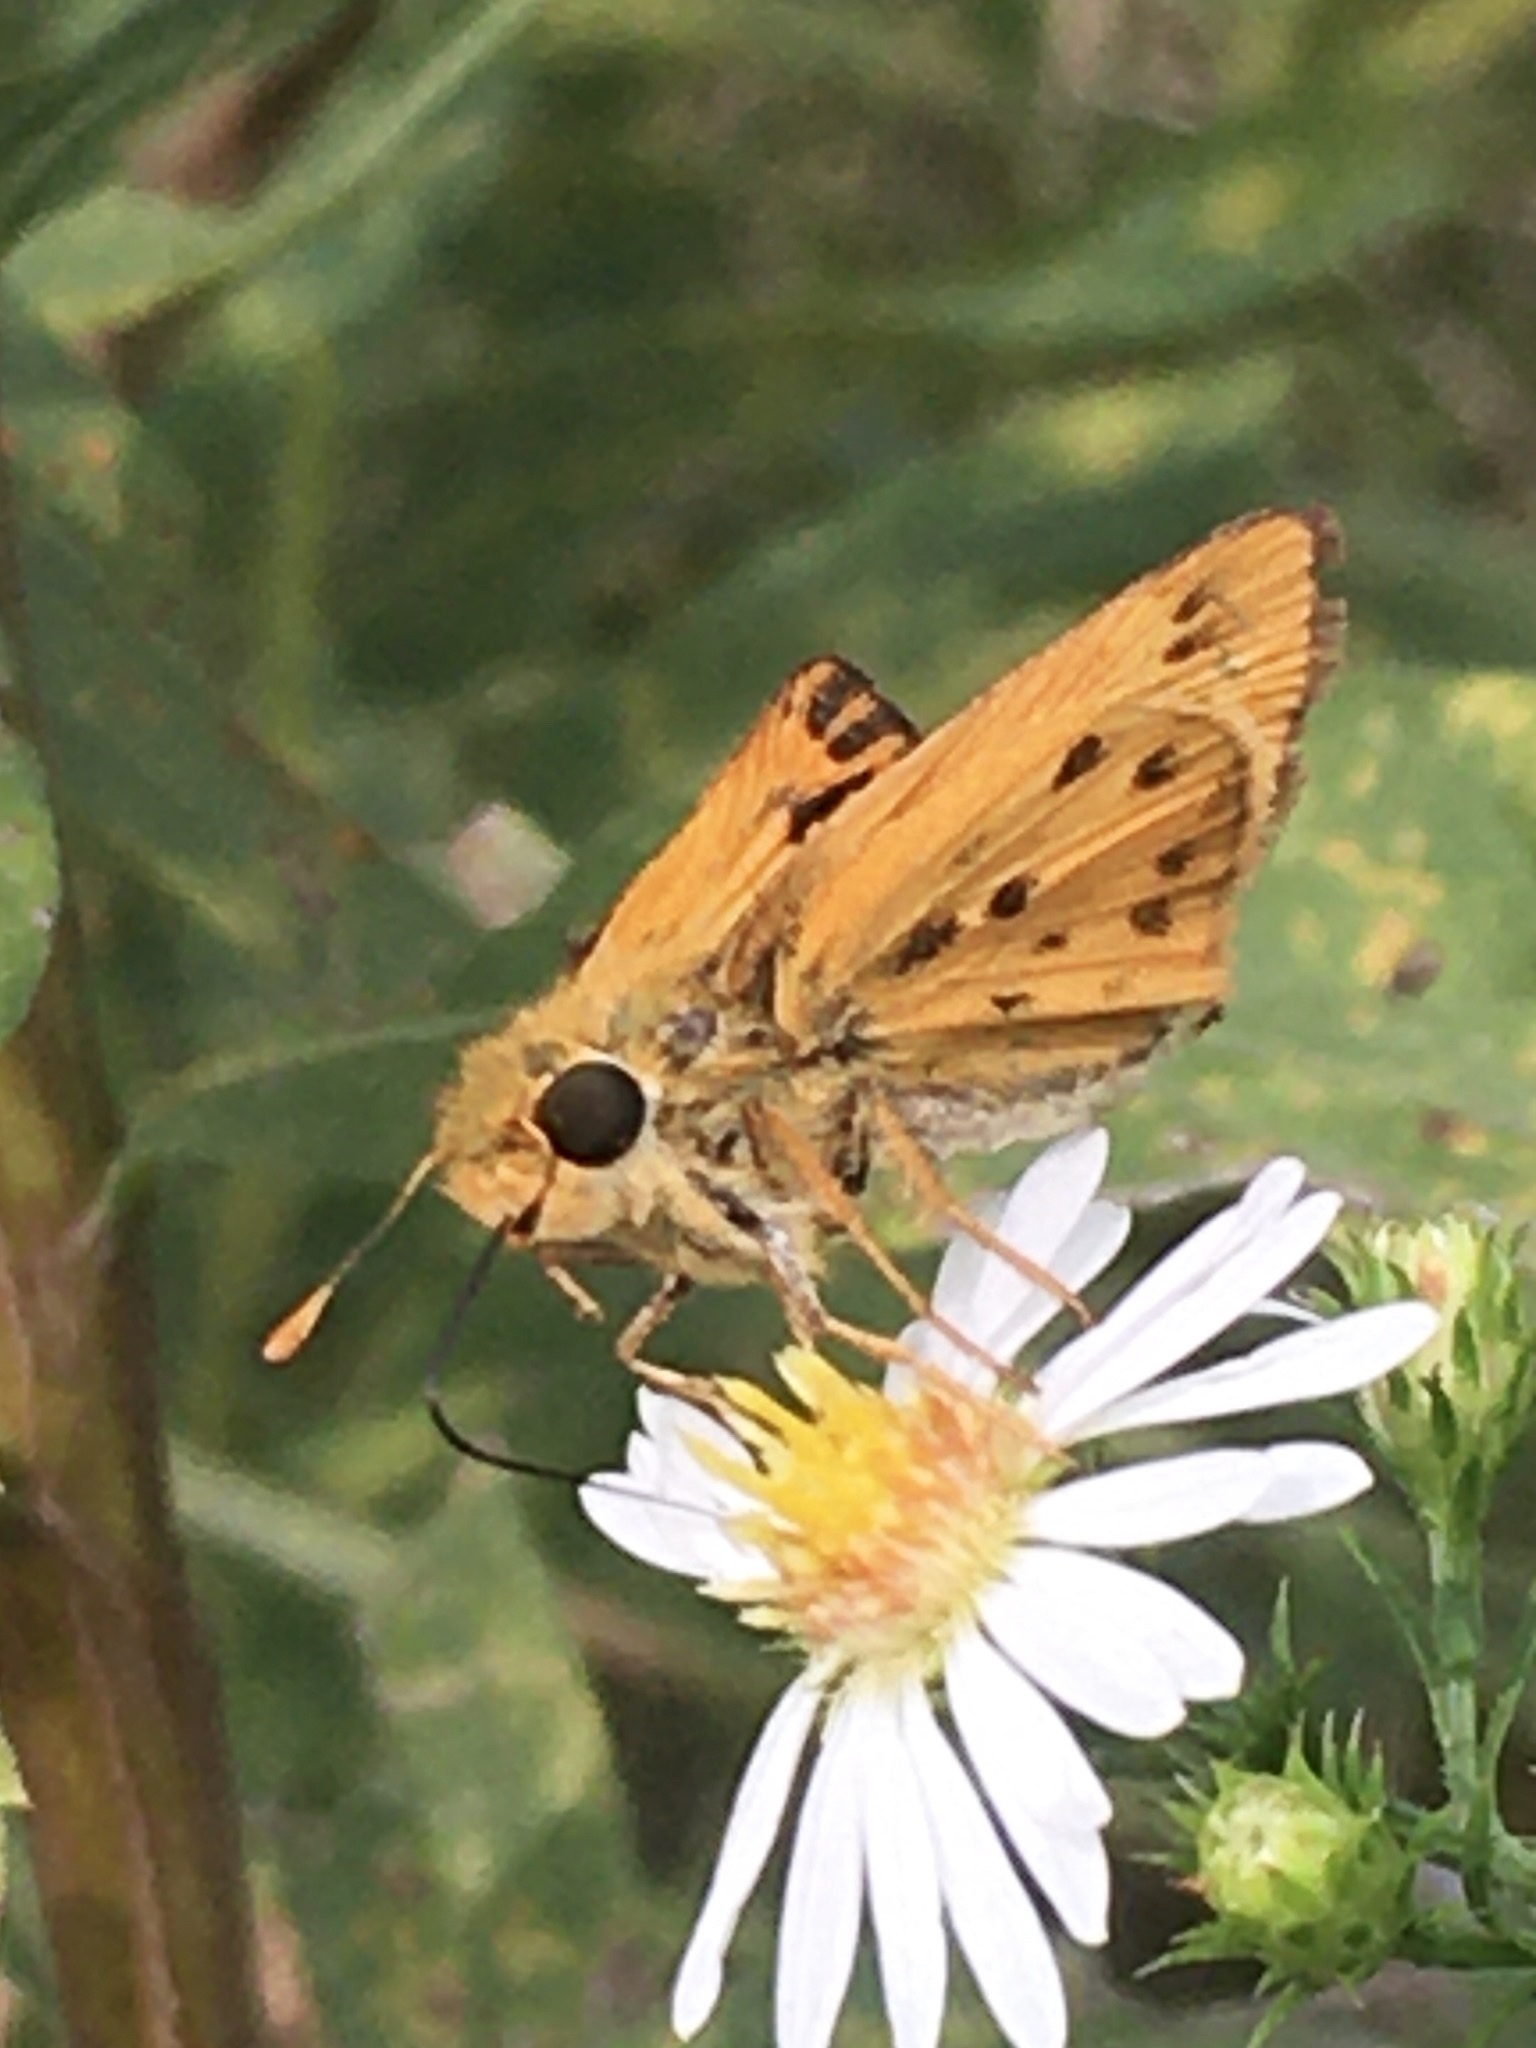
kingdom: Animalia
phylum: Arthropoda
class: Insecta
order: Lepidoptera
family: Hesperiidae
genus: Hylephila
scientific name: Hylephila phyleus
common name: Fiery skipper
